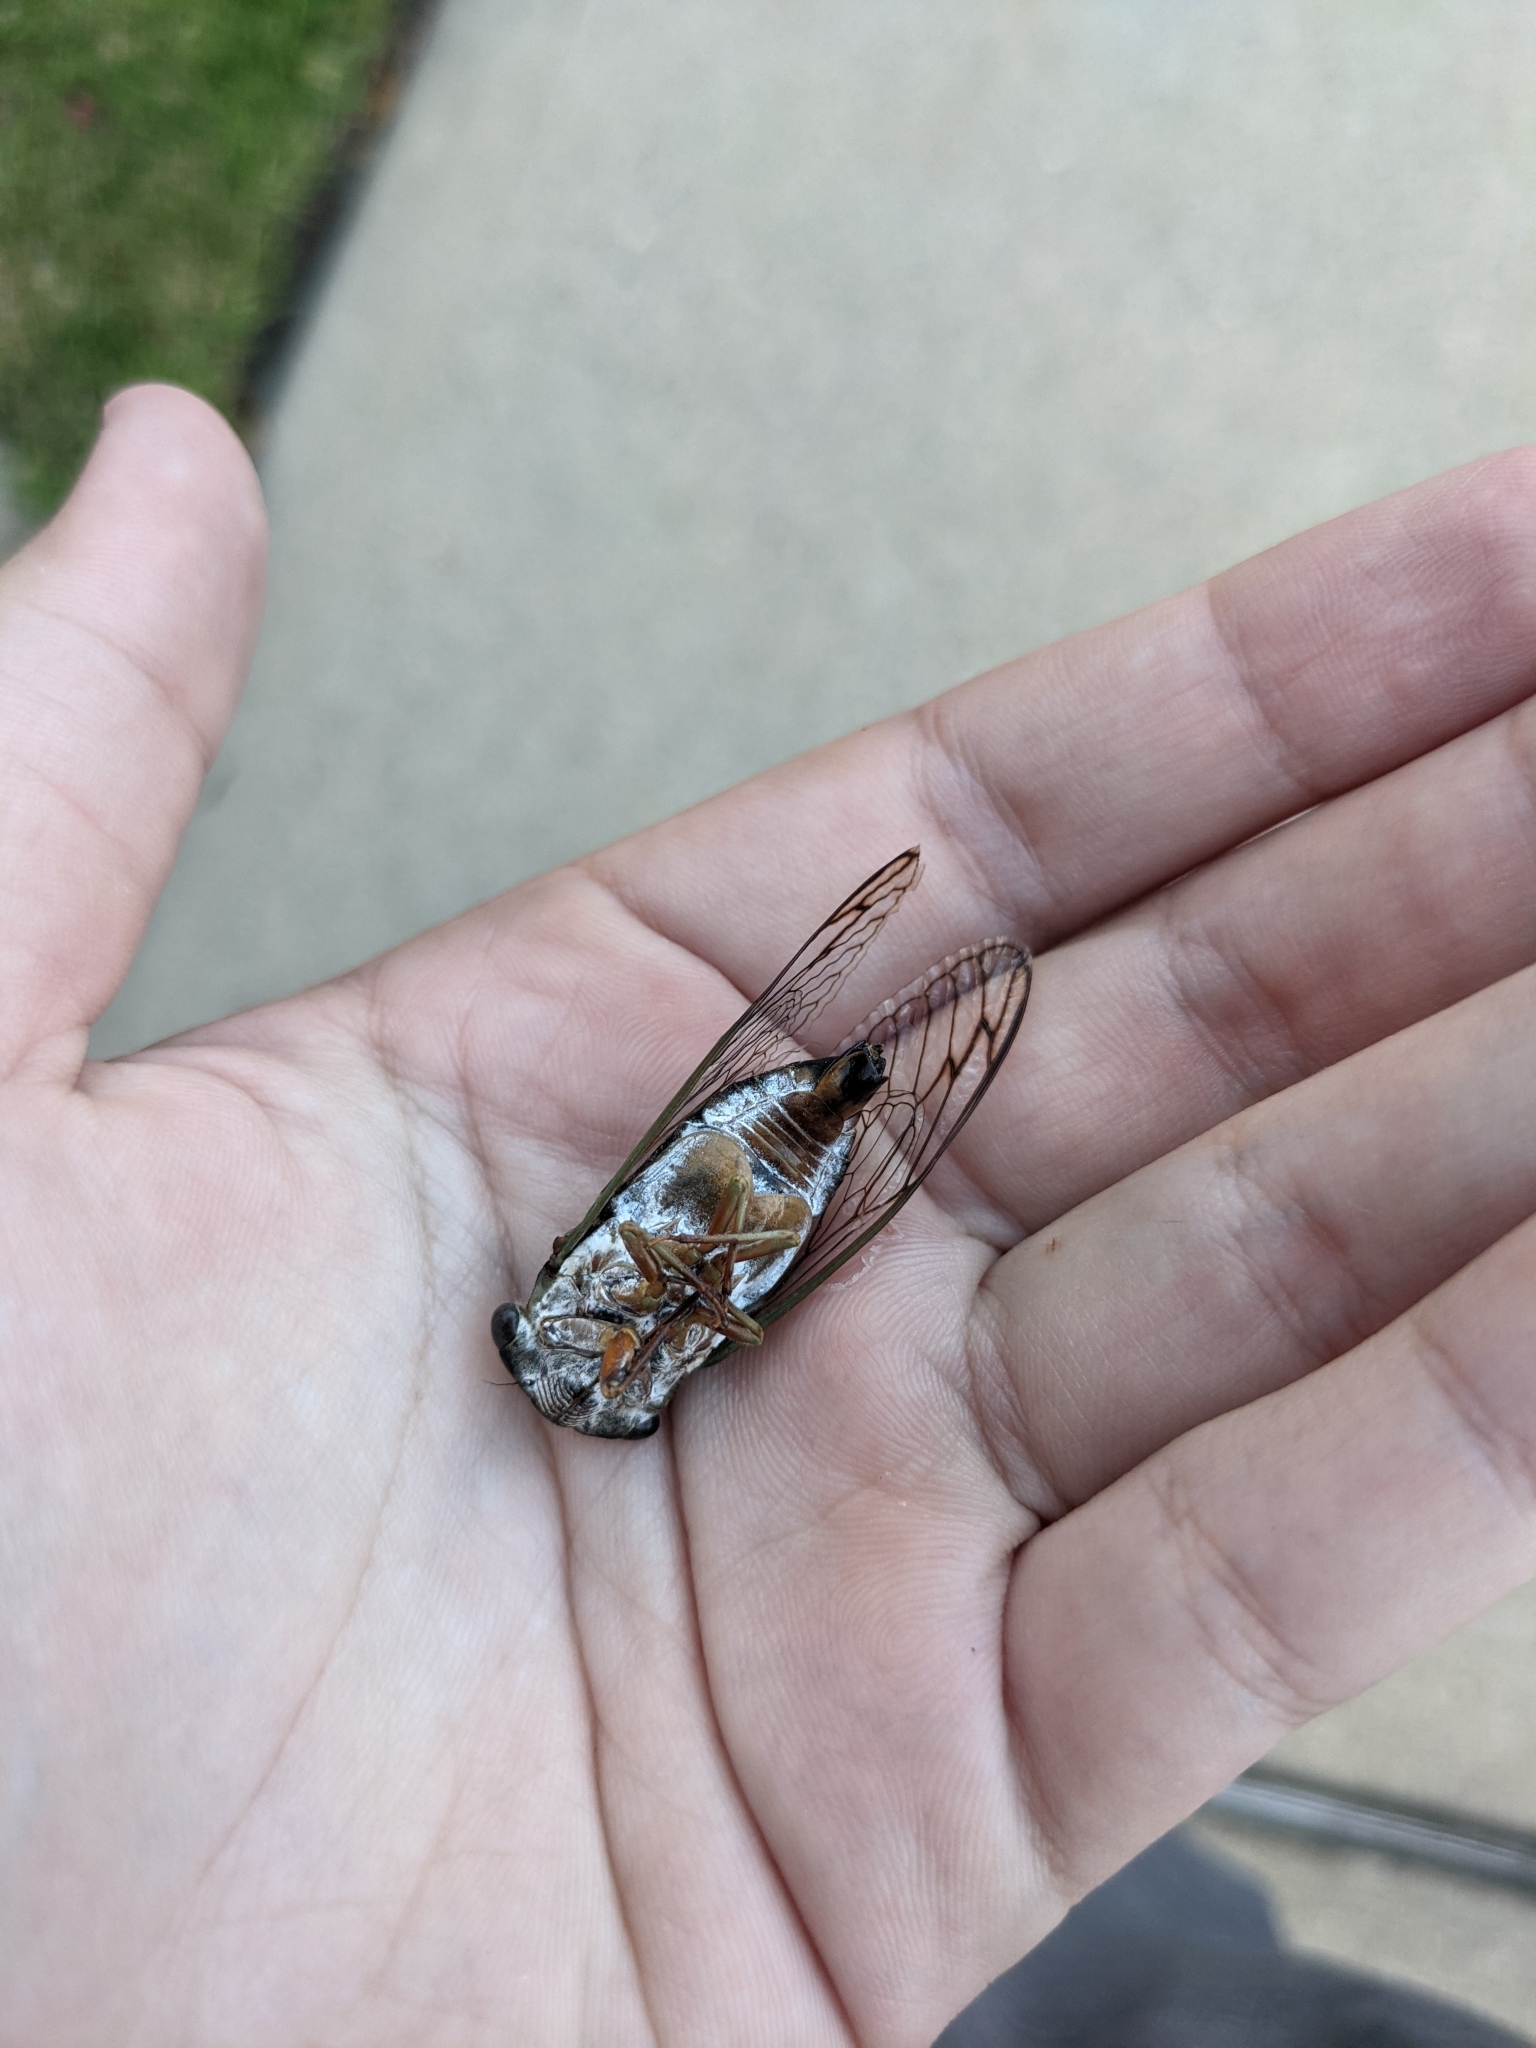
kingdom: Animalia
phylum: Arthropoda
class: Insecta
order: Hemiptera
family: Cicadidae
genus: Neotibicen
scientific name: Neotibicen davisi
